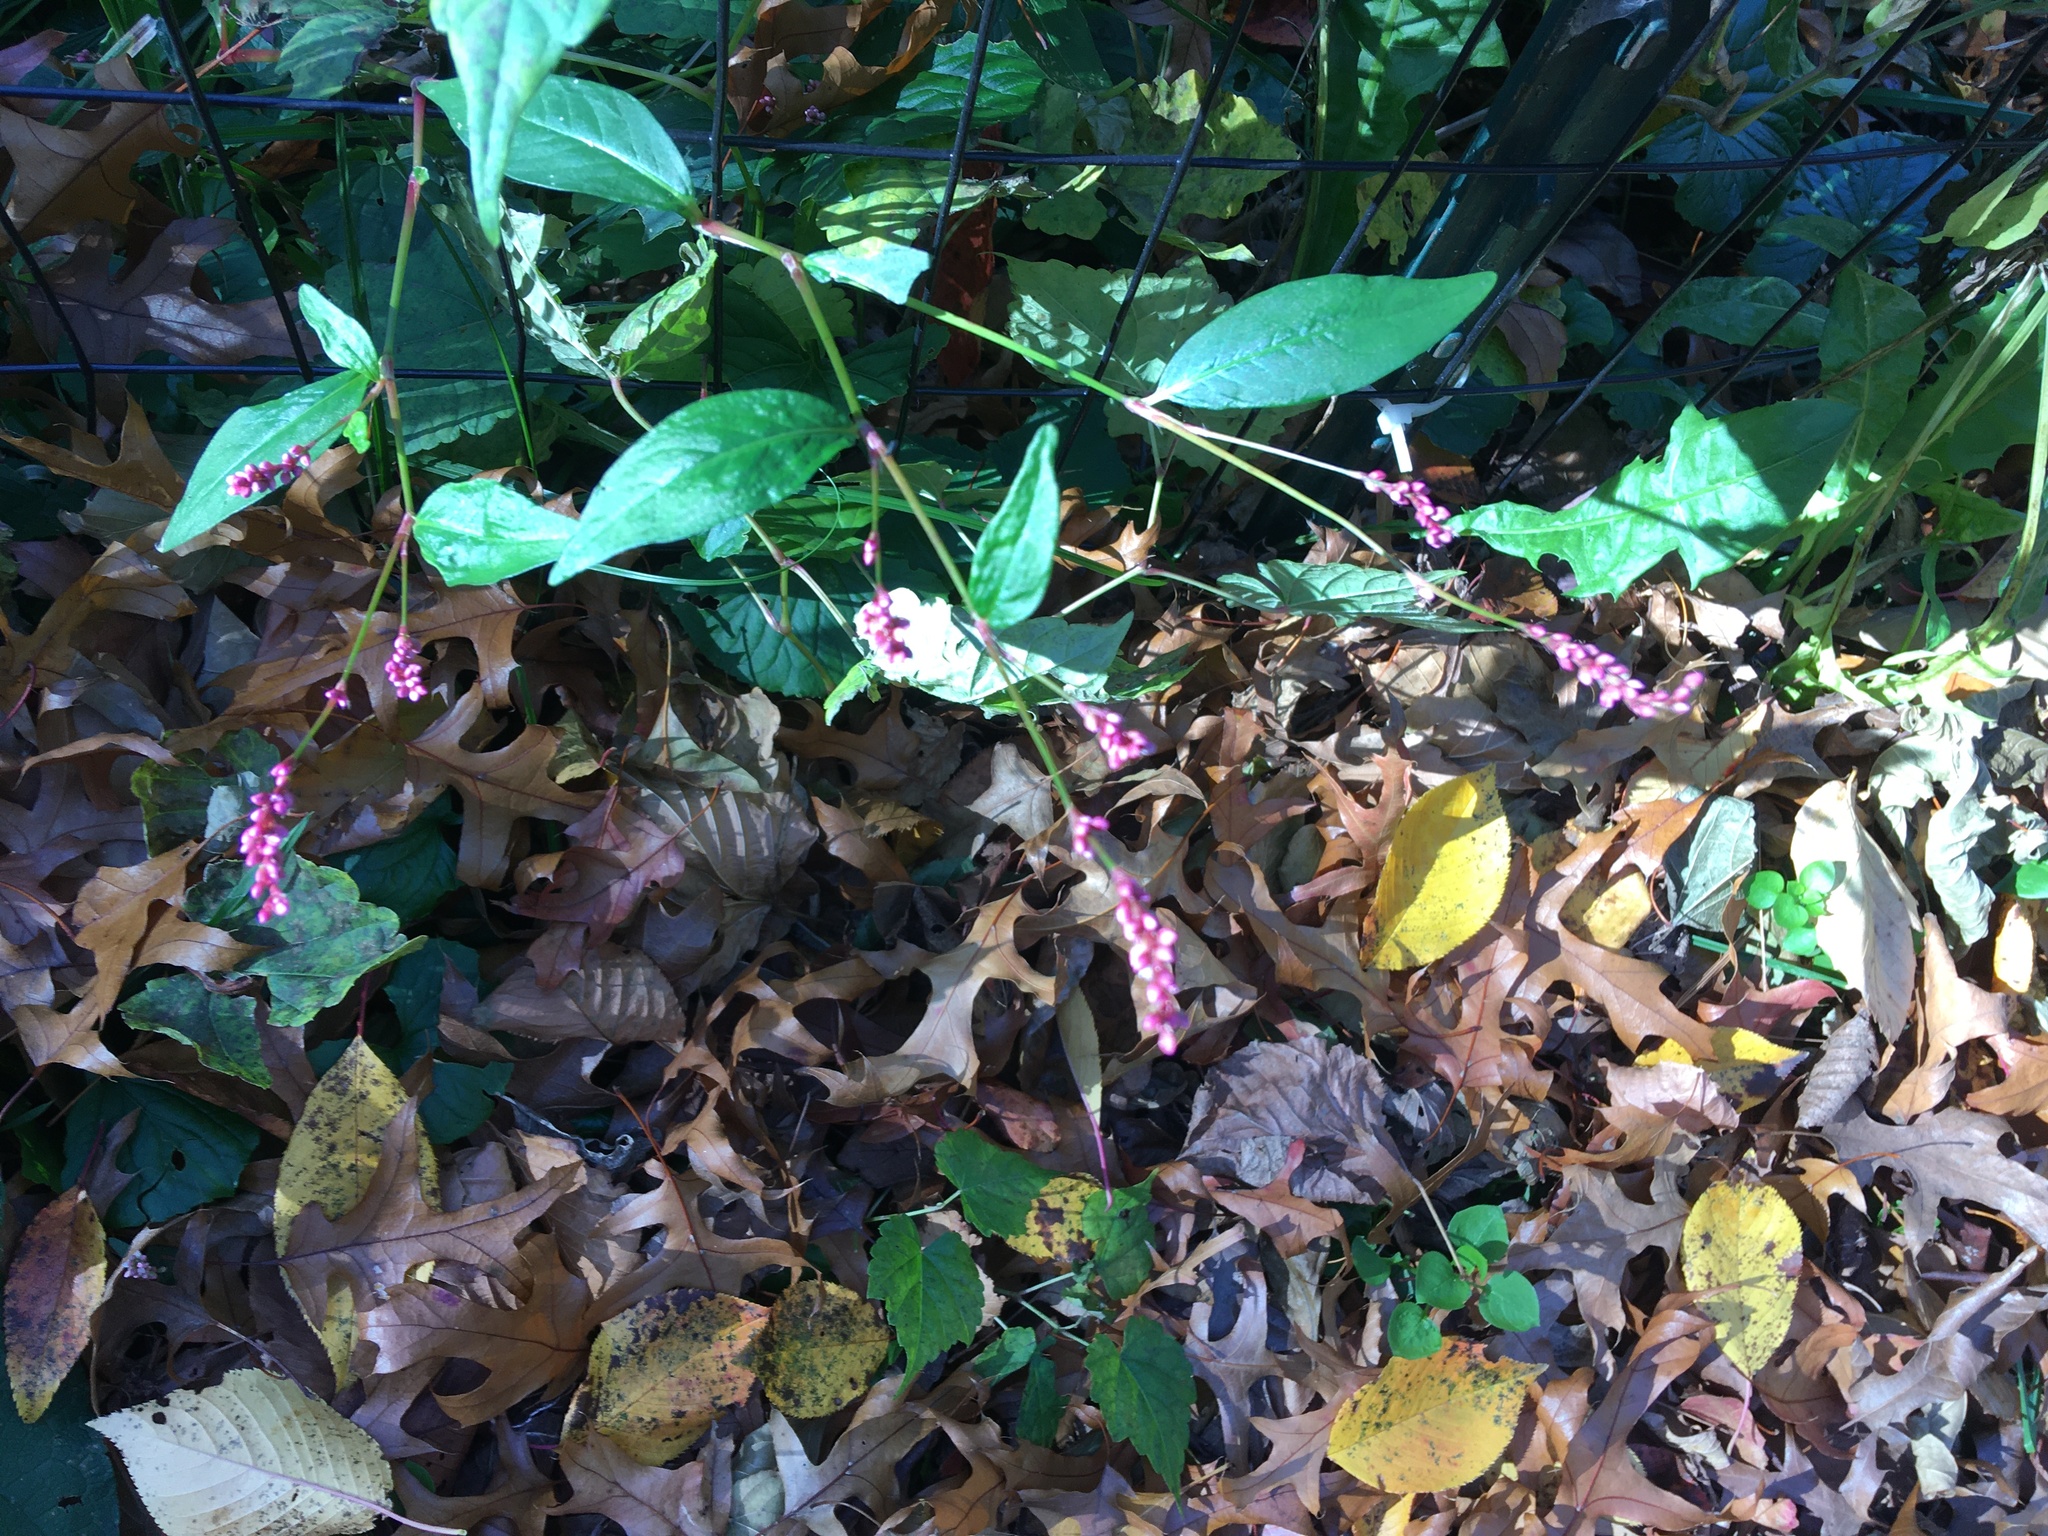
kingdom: Plantae
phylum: Tracheophyta
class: Magnoliopsida
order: Caryophyllales
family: Polygonaceae
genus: Persicaria
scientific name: Persicaria longiseta
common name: Bristly lady's-thumb
